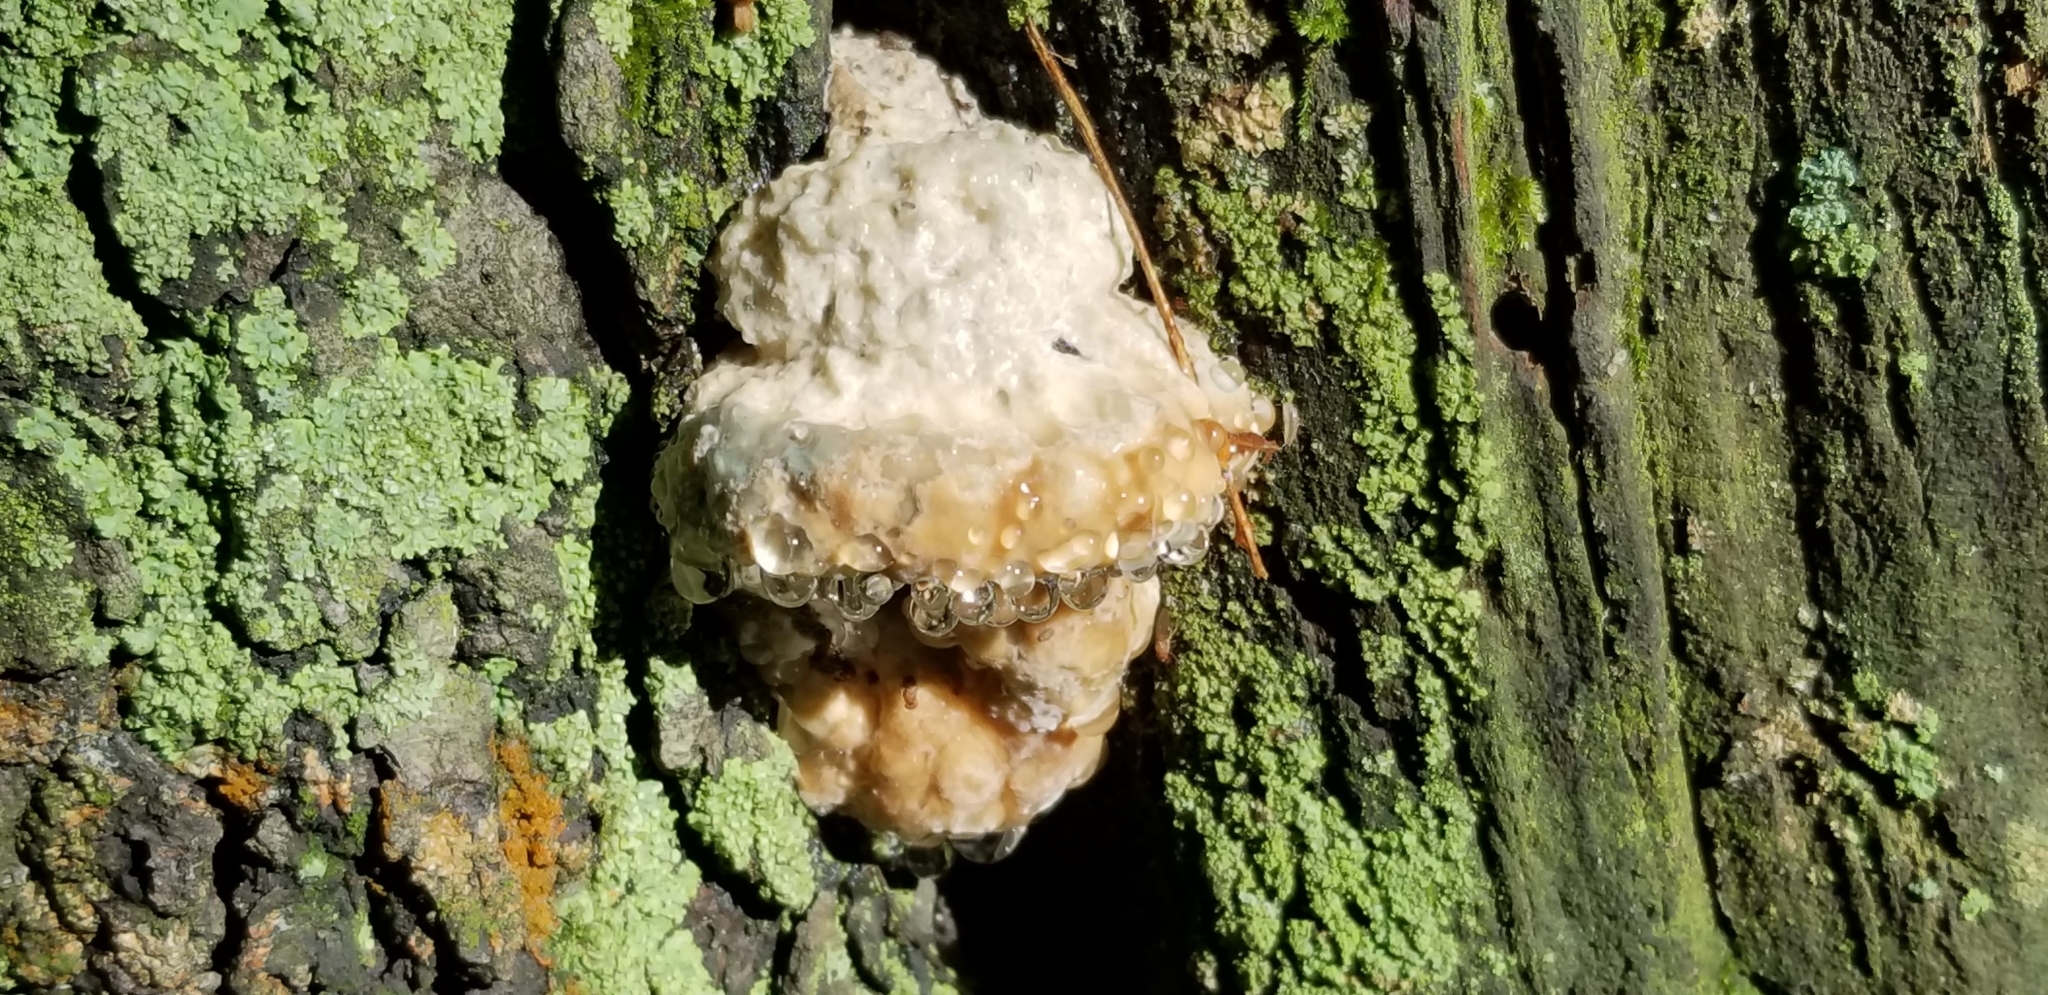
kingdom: Fungi
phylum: Basidiomycota
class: Agaricomycetes
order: Polyporales
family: Fomitopsidaceae
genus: Niveoporofomes
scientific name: Niveoporofomes spraguei
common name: Green cheese polypore
